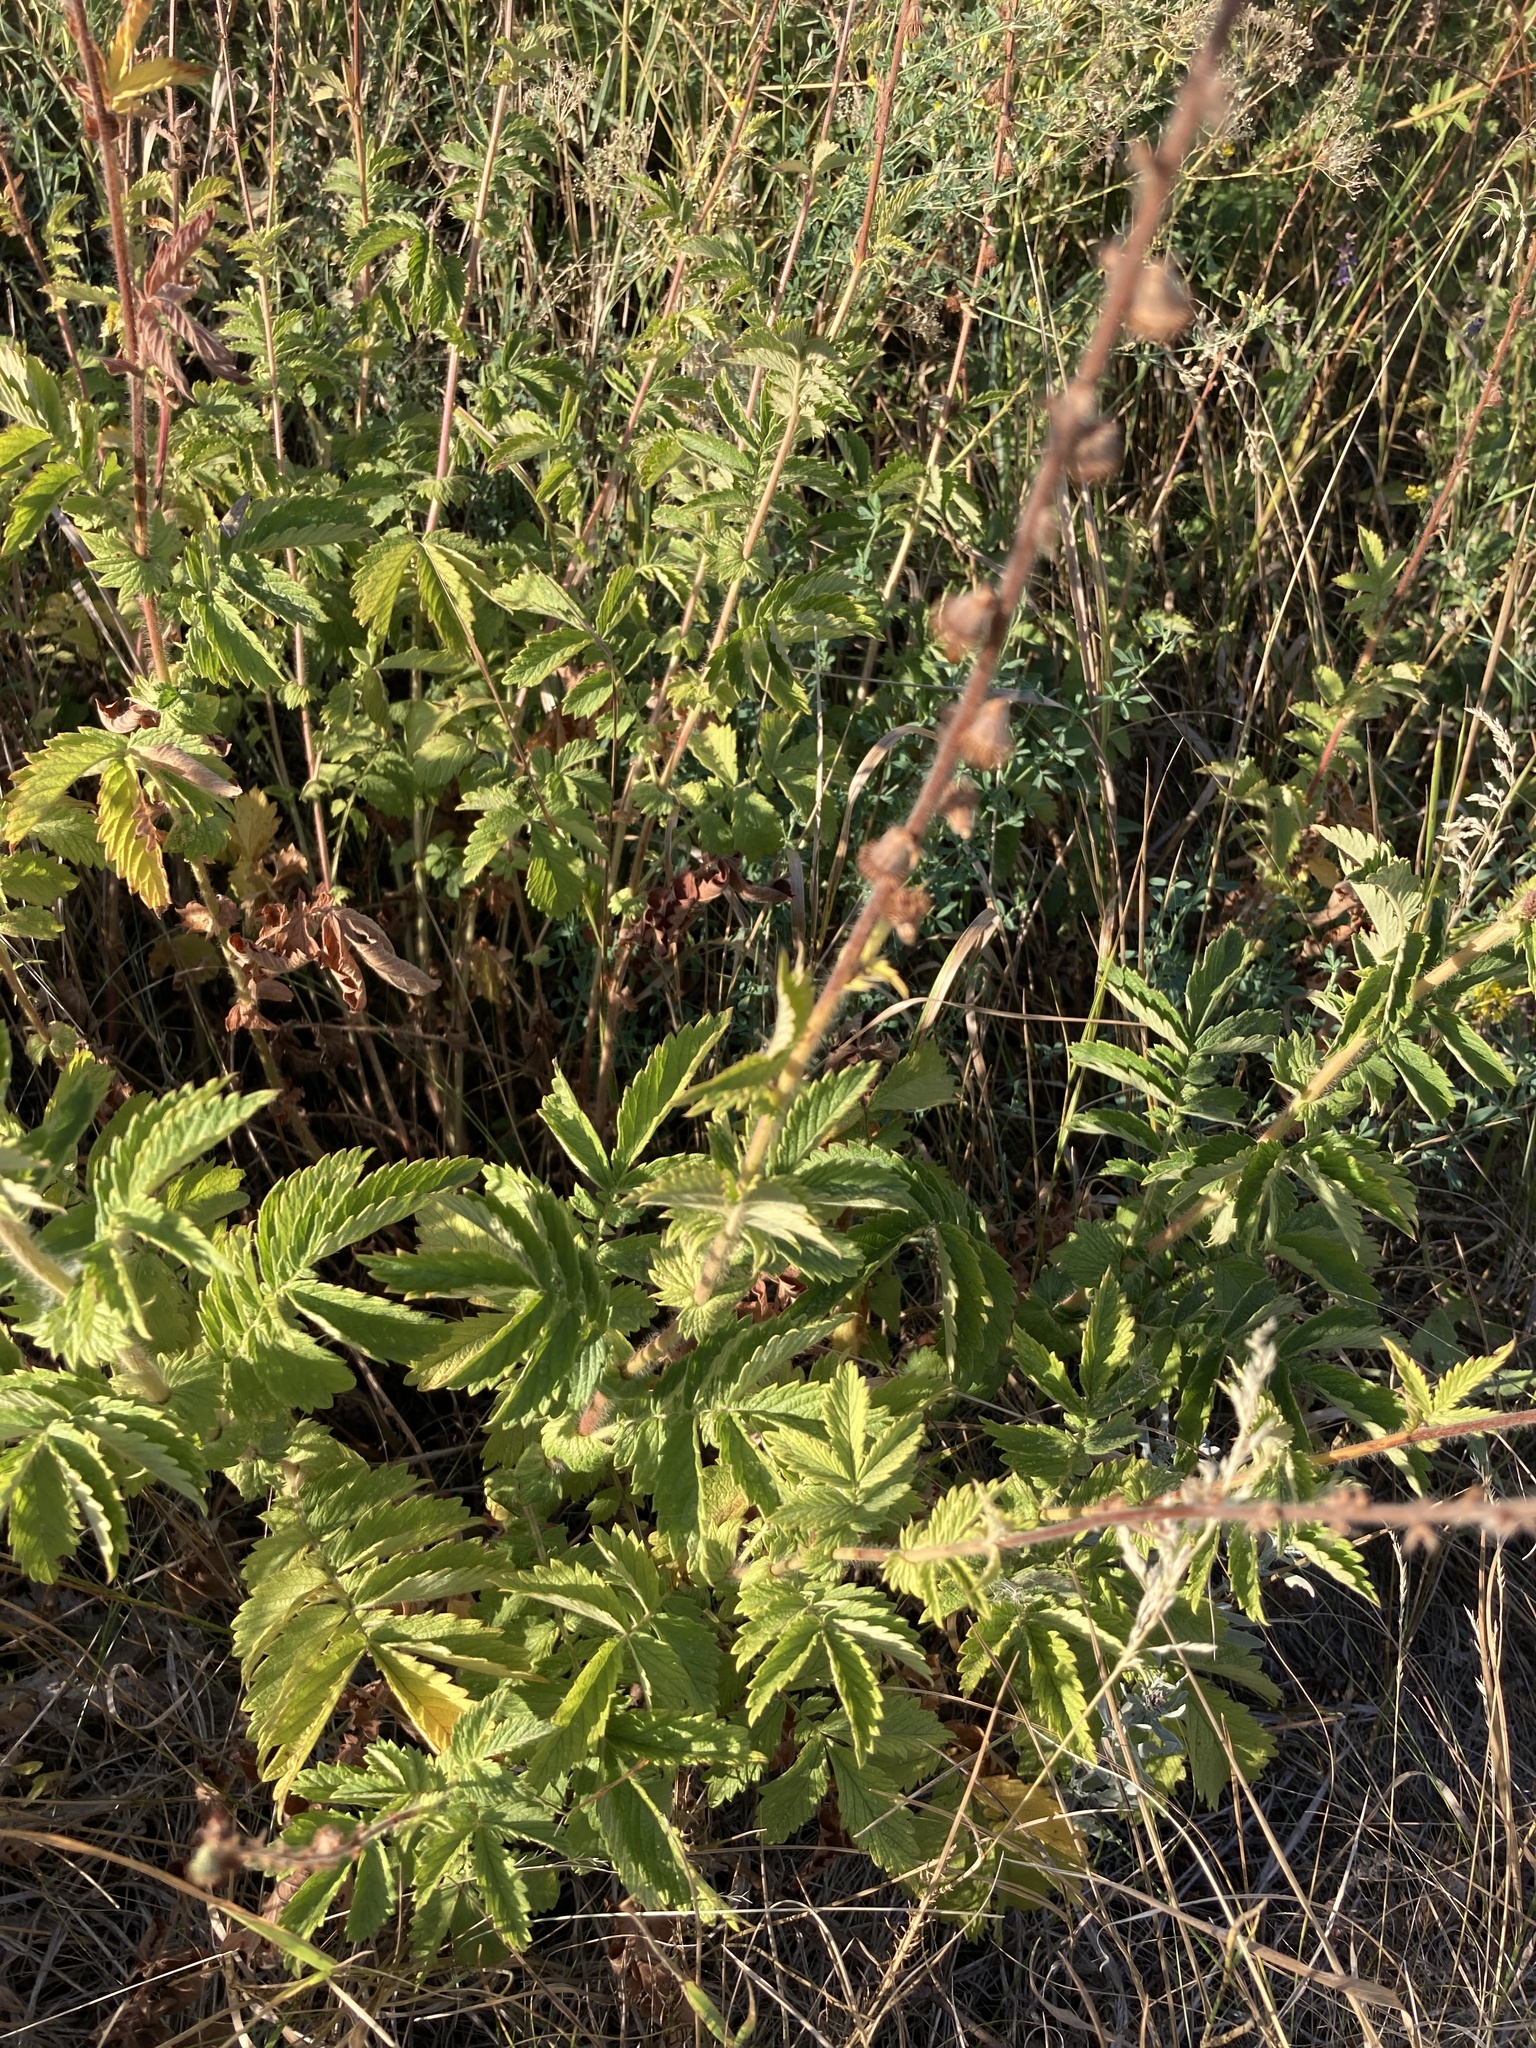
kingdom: Plantae
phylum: Tracheophyta
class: Magnoliopsida
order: Rosales
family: Rosaceae
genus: Agrimonia
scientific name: Agrimonia eupatoria
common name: Agrimony
